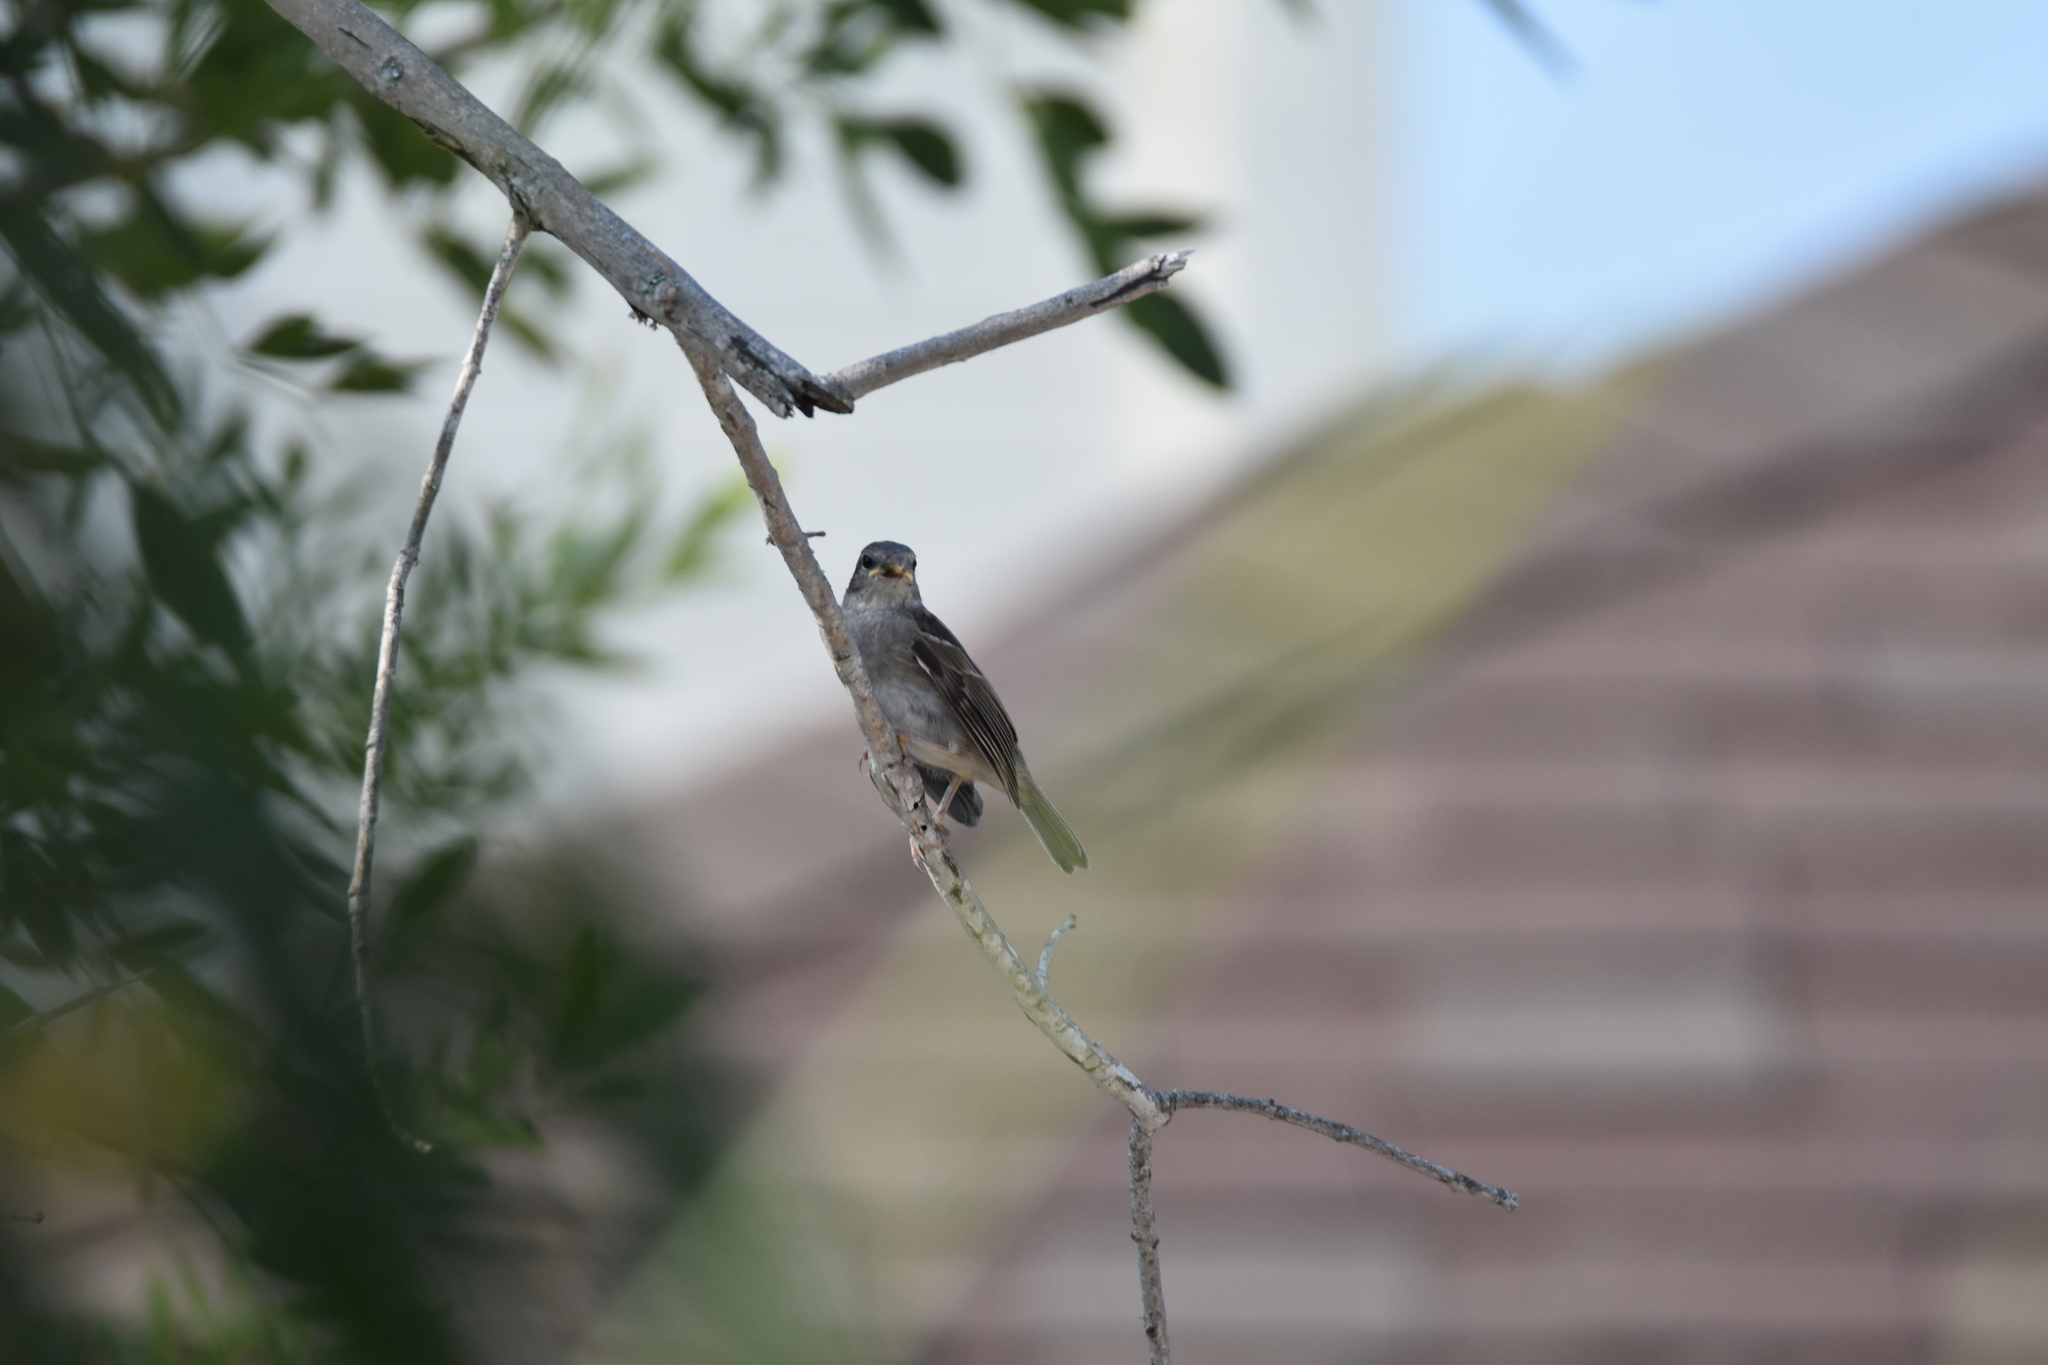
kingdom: Animalia
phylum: Chordata
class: Aves
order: Passeriformes
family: Mimidae
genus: Mimus
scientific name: Mimus polyglottos
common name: Northern mockingbird
